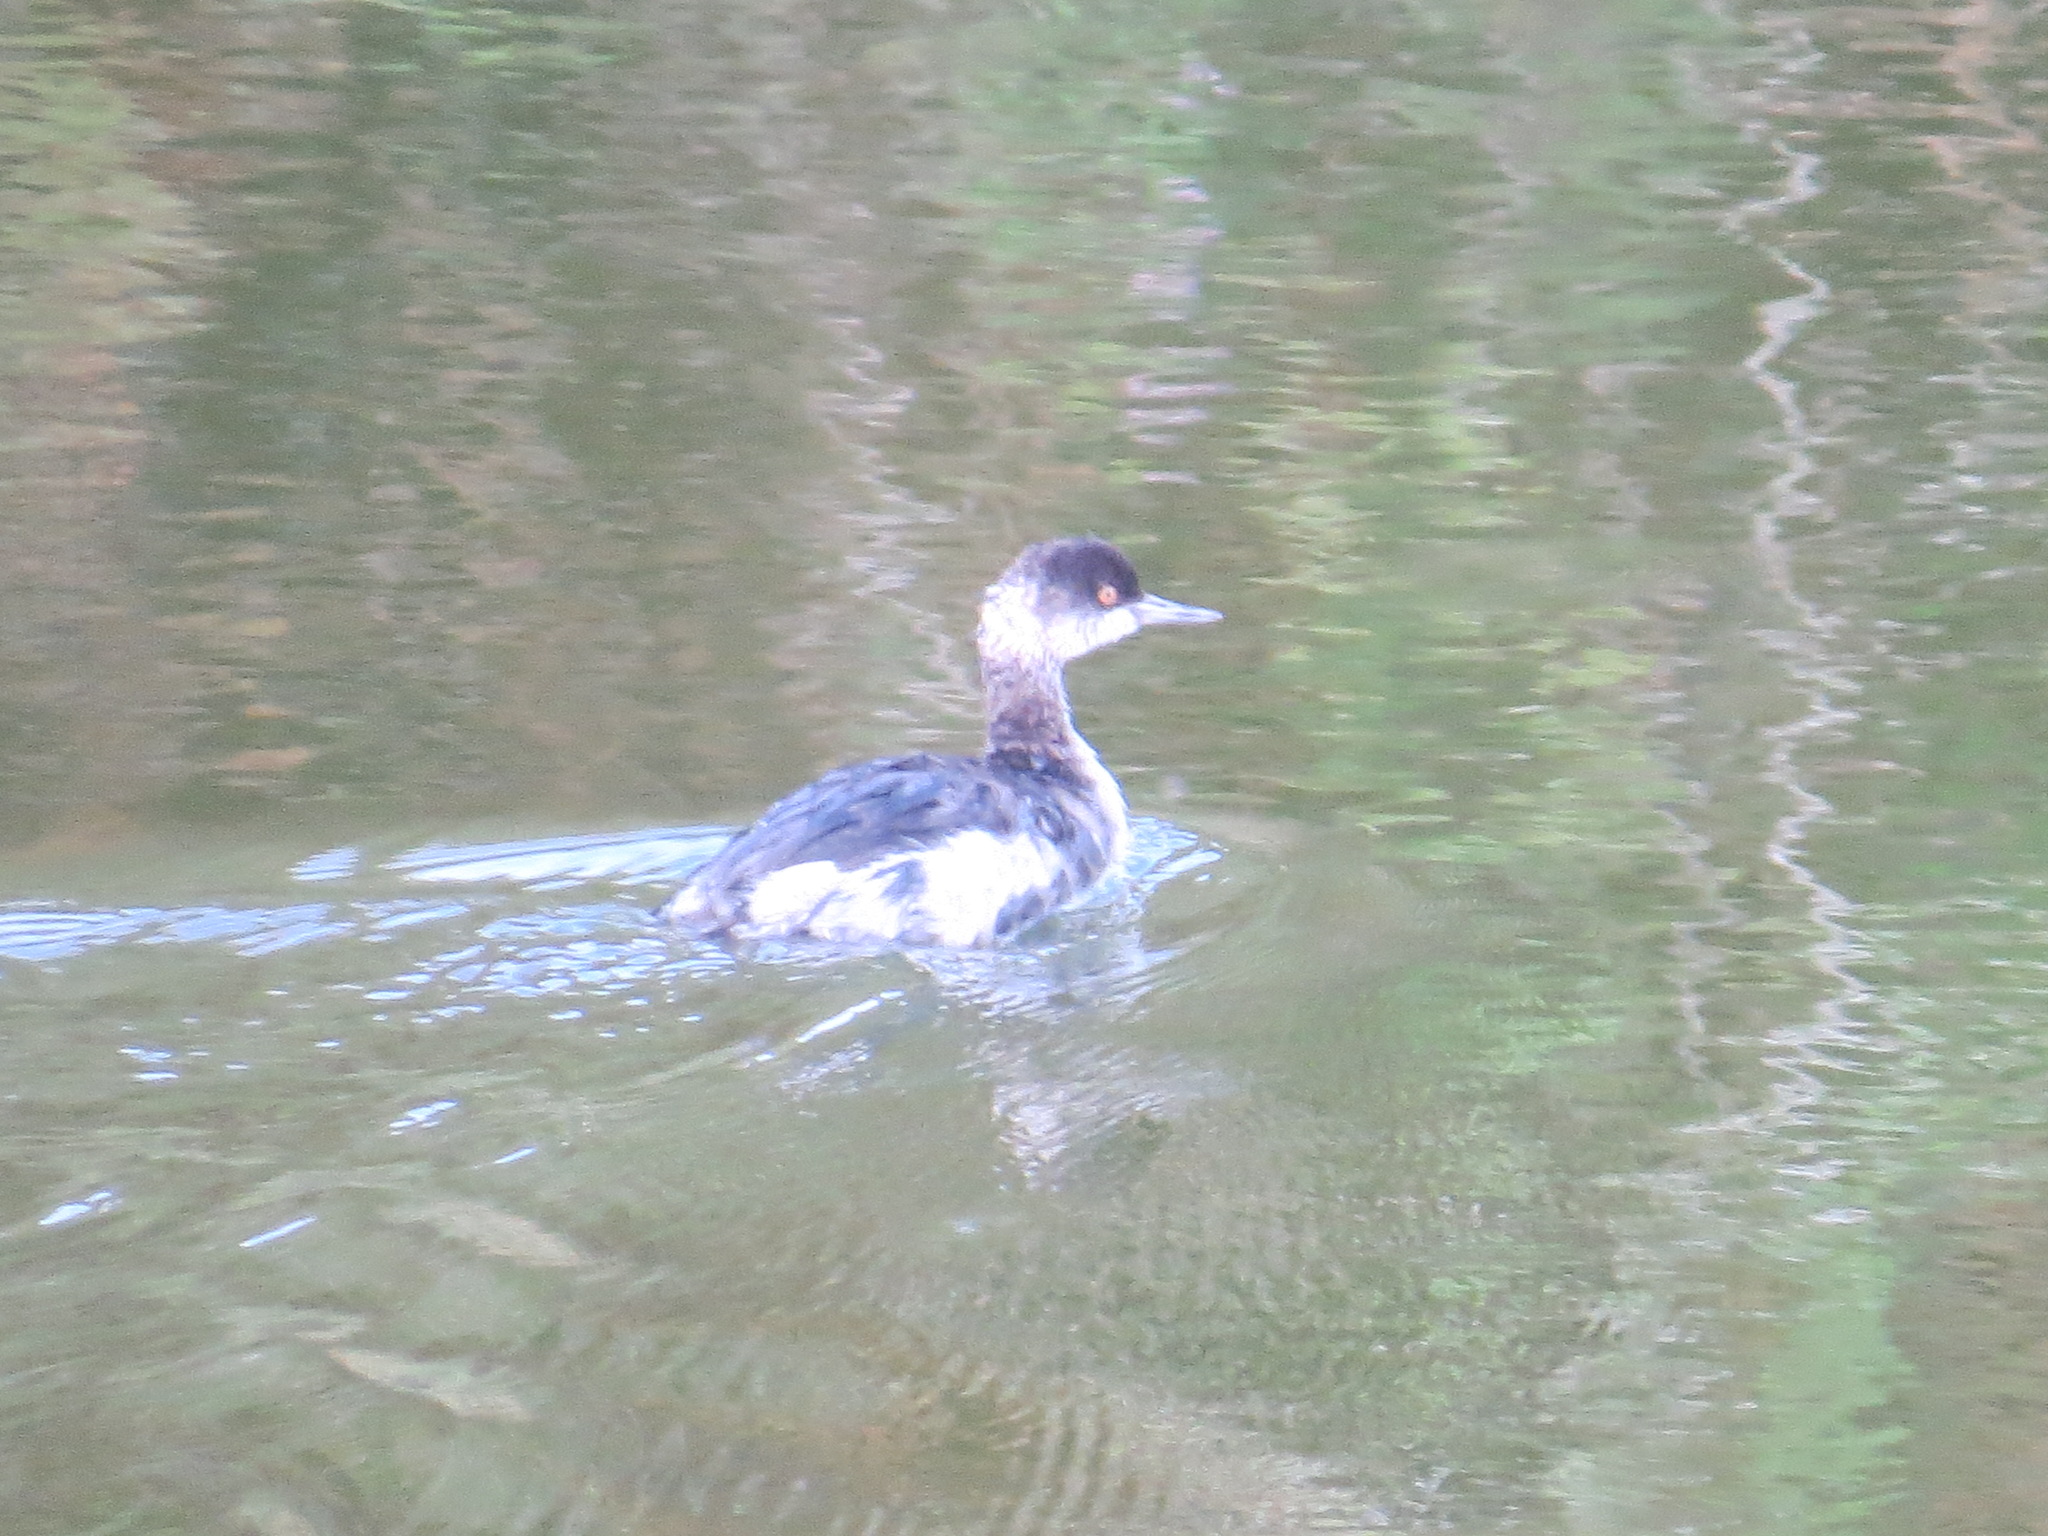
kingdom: Animalia
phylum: Chordata
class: Aves
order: Podicipediformes
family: Podicipedidae
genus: Podiceps
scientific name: Podiceps nigricollis
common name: Black-necked grebe
